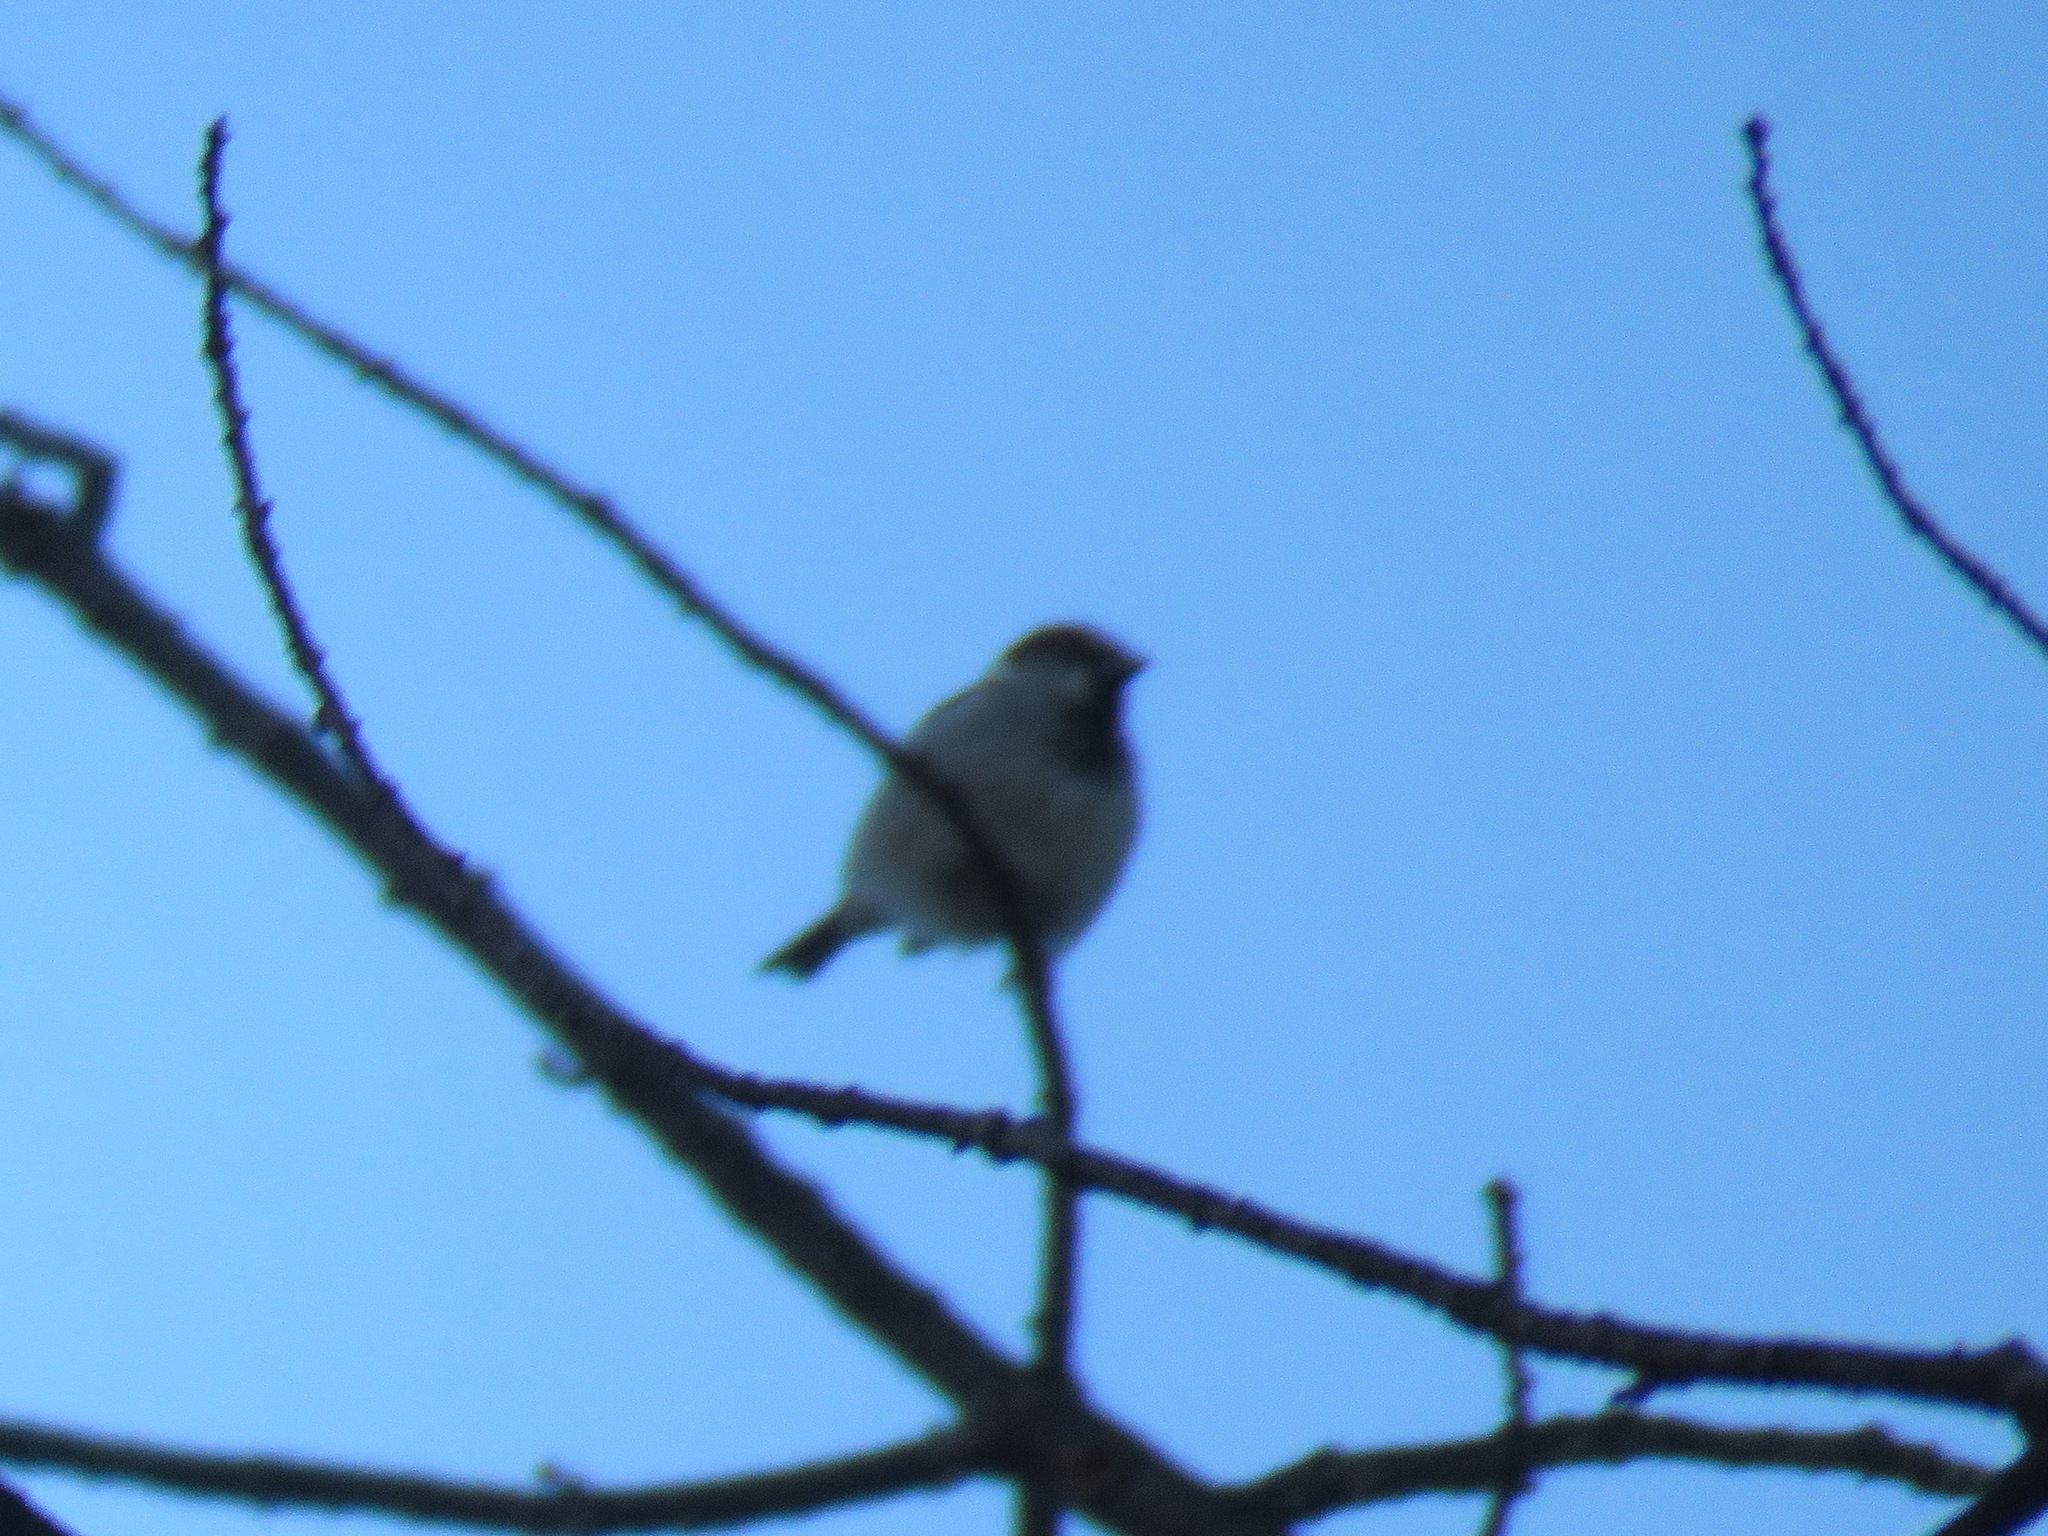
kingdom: Animalia
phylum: Chordata
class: Aves
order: Passeriformes
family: Passeridae
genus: Passer
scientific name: Passer domesticus
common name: House sparrow
